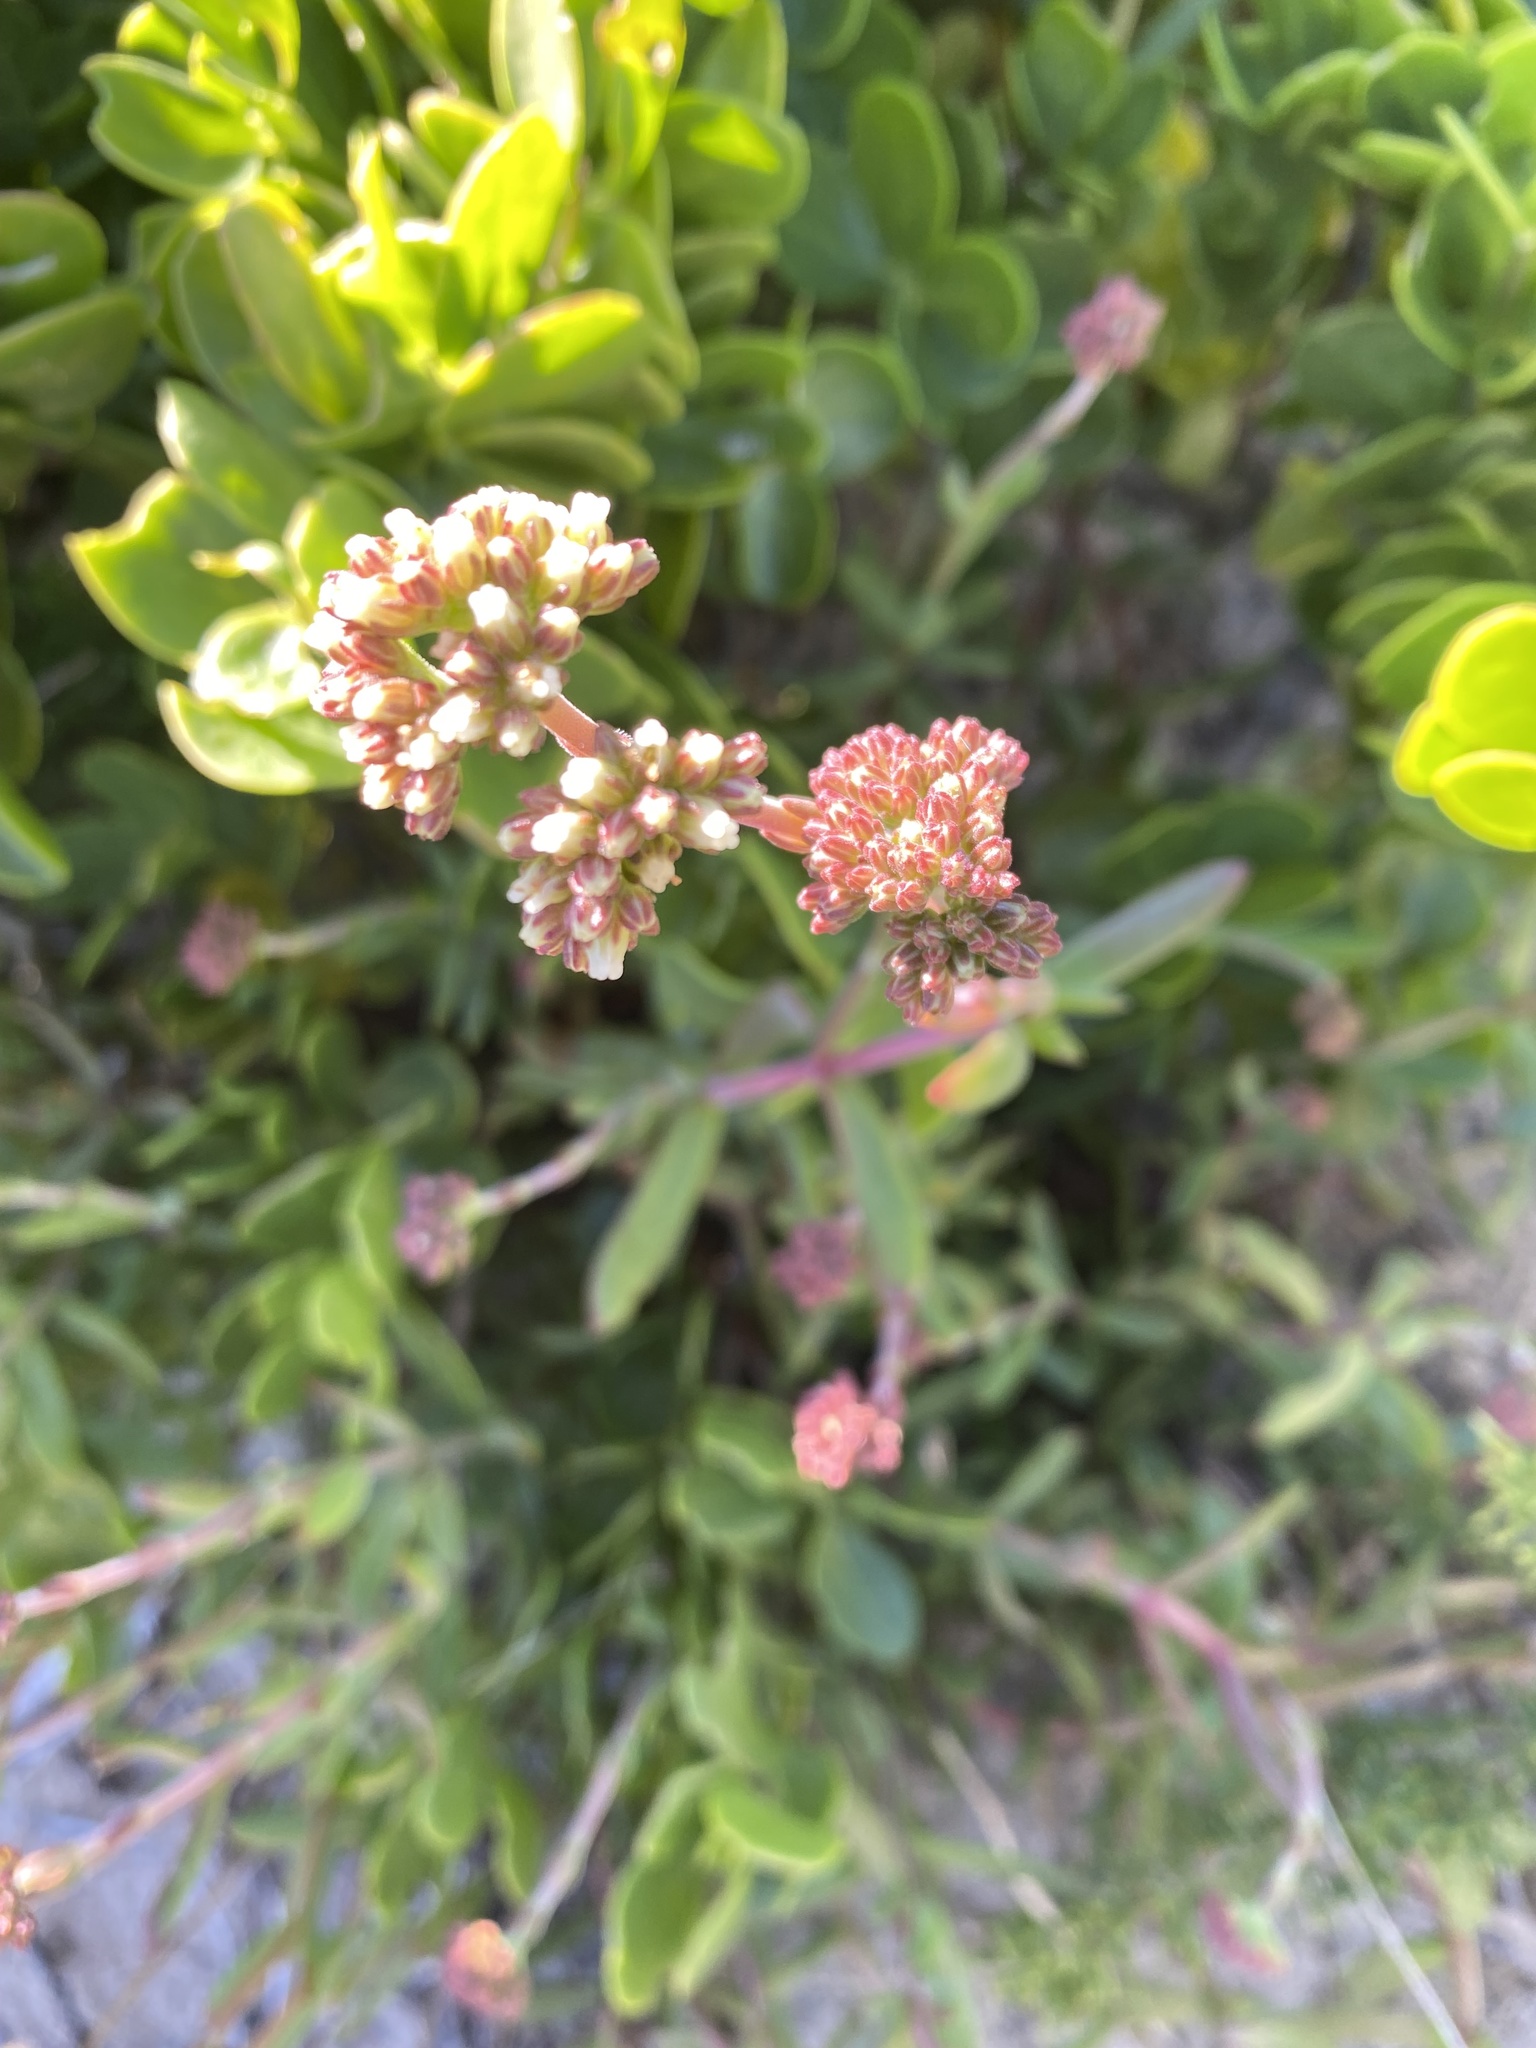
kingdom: Plantae
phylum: Tracheophyta
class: Magnoliopsida
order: Saxifragales
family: Crassulaceae
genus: Crassula
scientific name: Crassula pubescens
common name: Jersey pigmyweed
